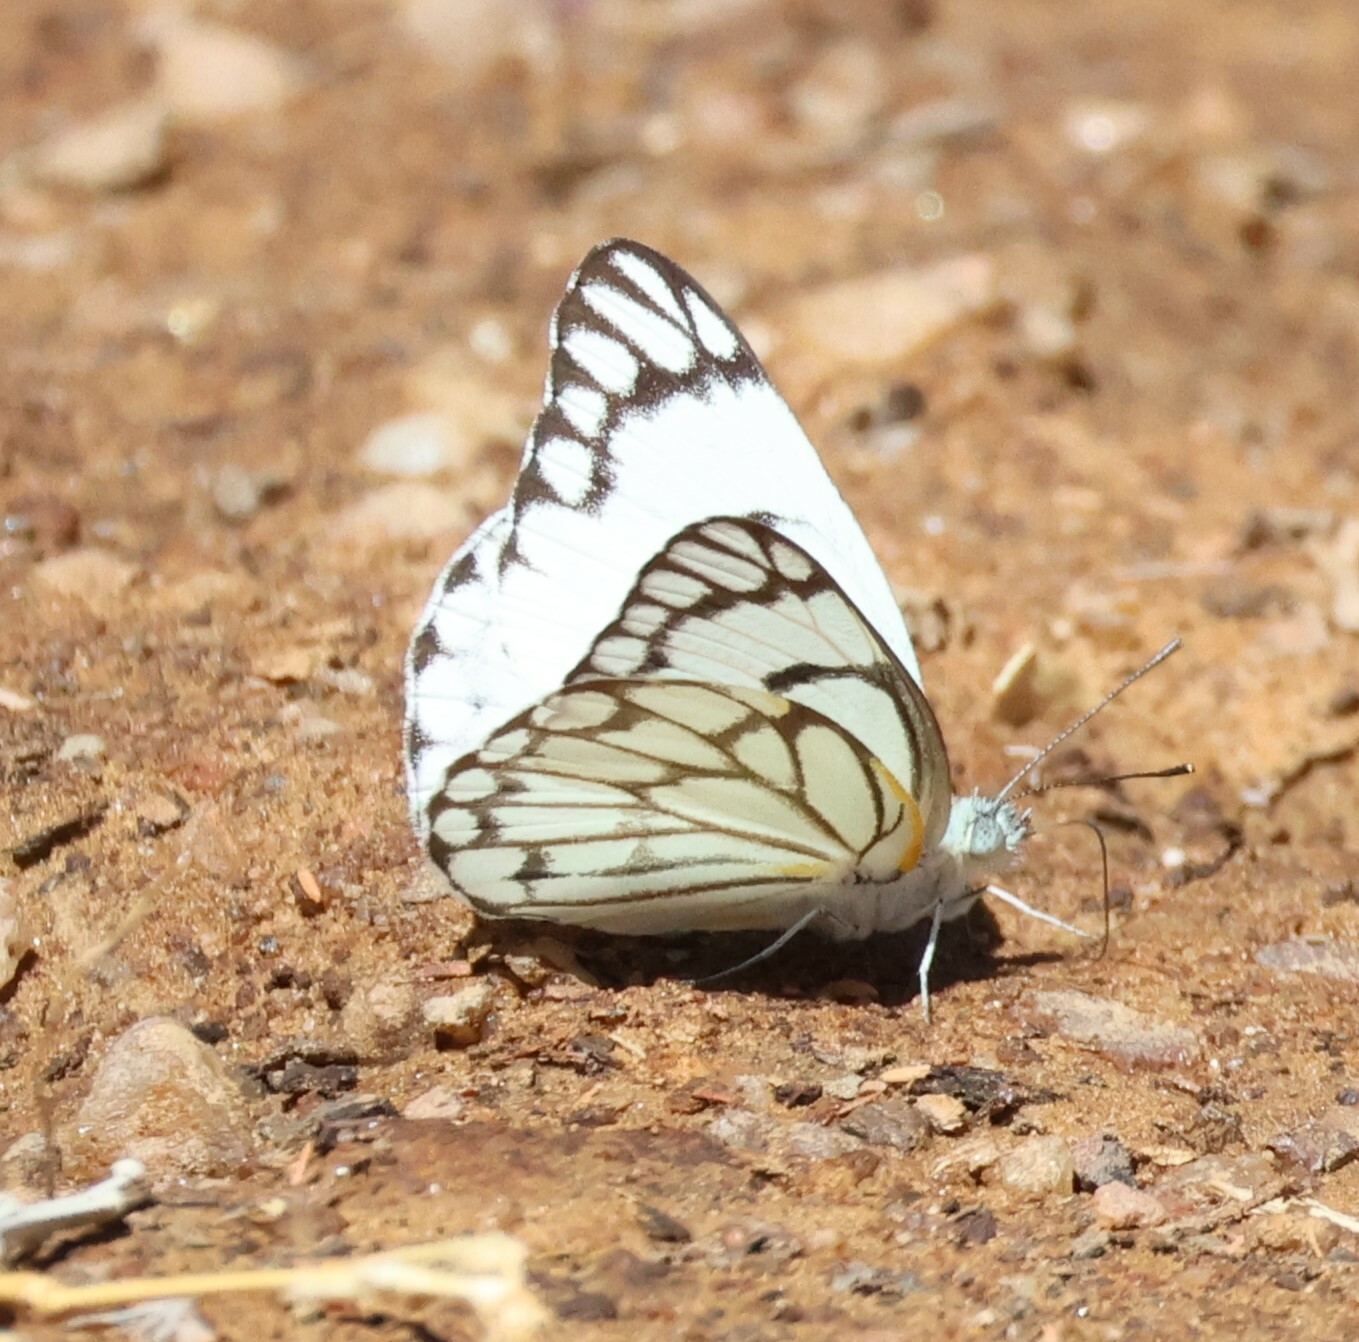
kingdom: Animalia
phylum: Arthropoda
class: Insecta
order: Lepidoptera
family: Pieridae
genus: Belenois
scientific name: Belenois aurota
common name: Brown-veined white
